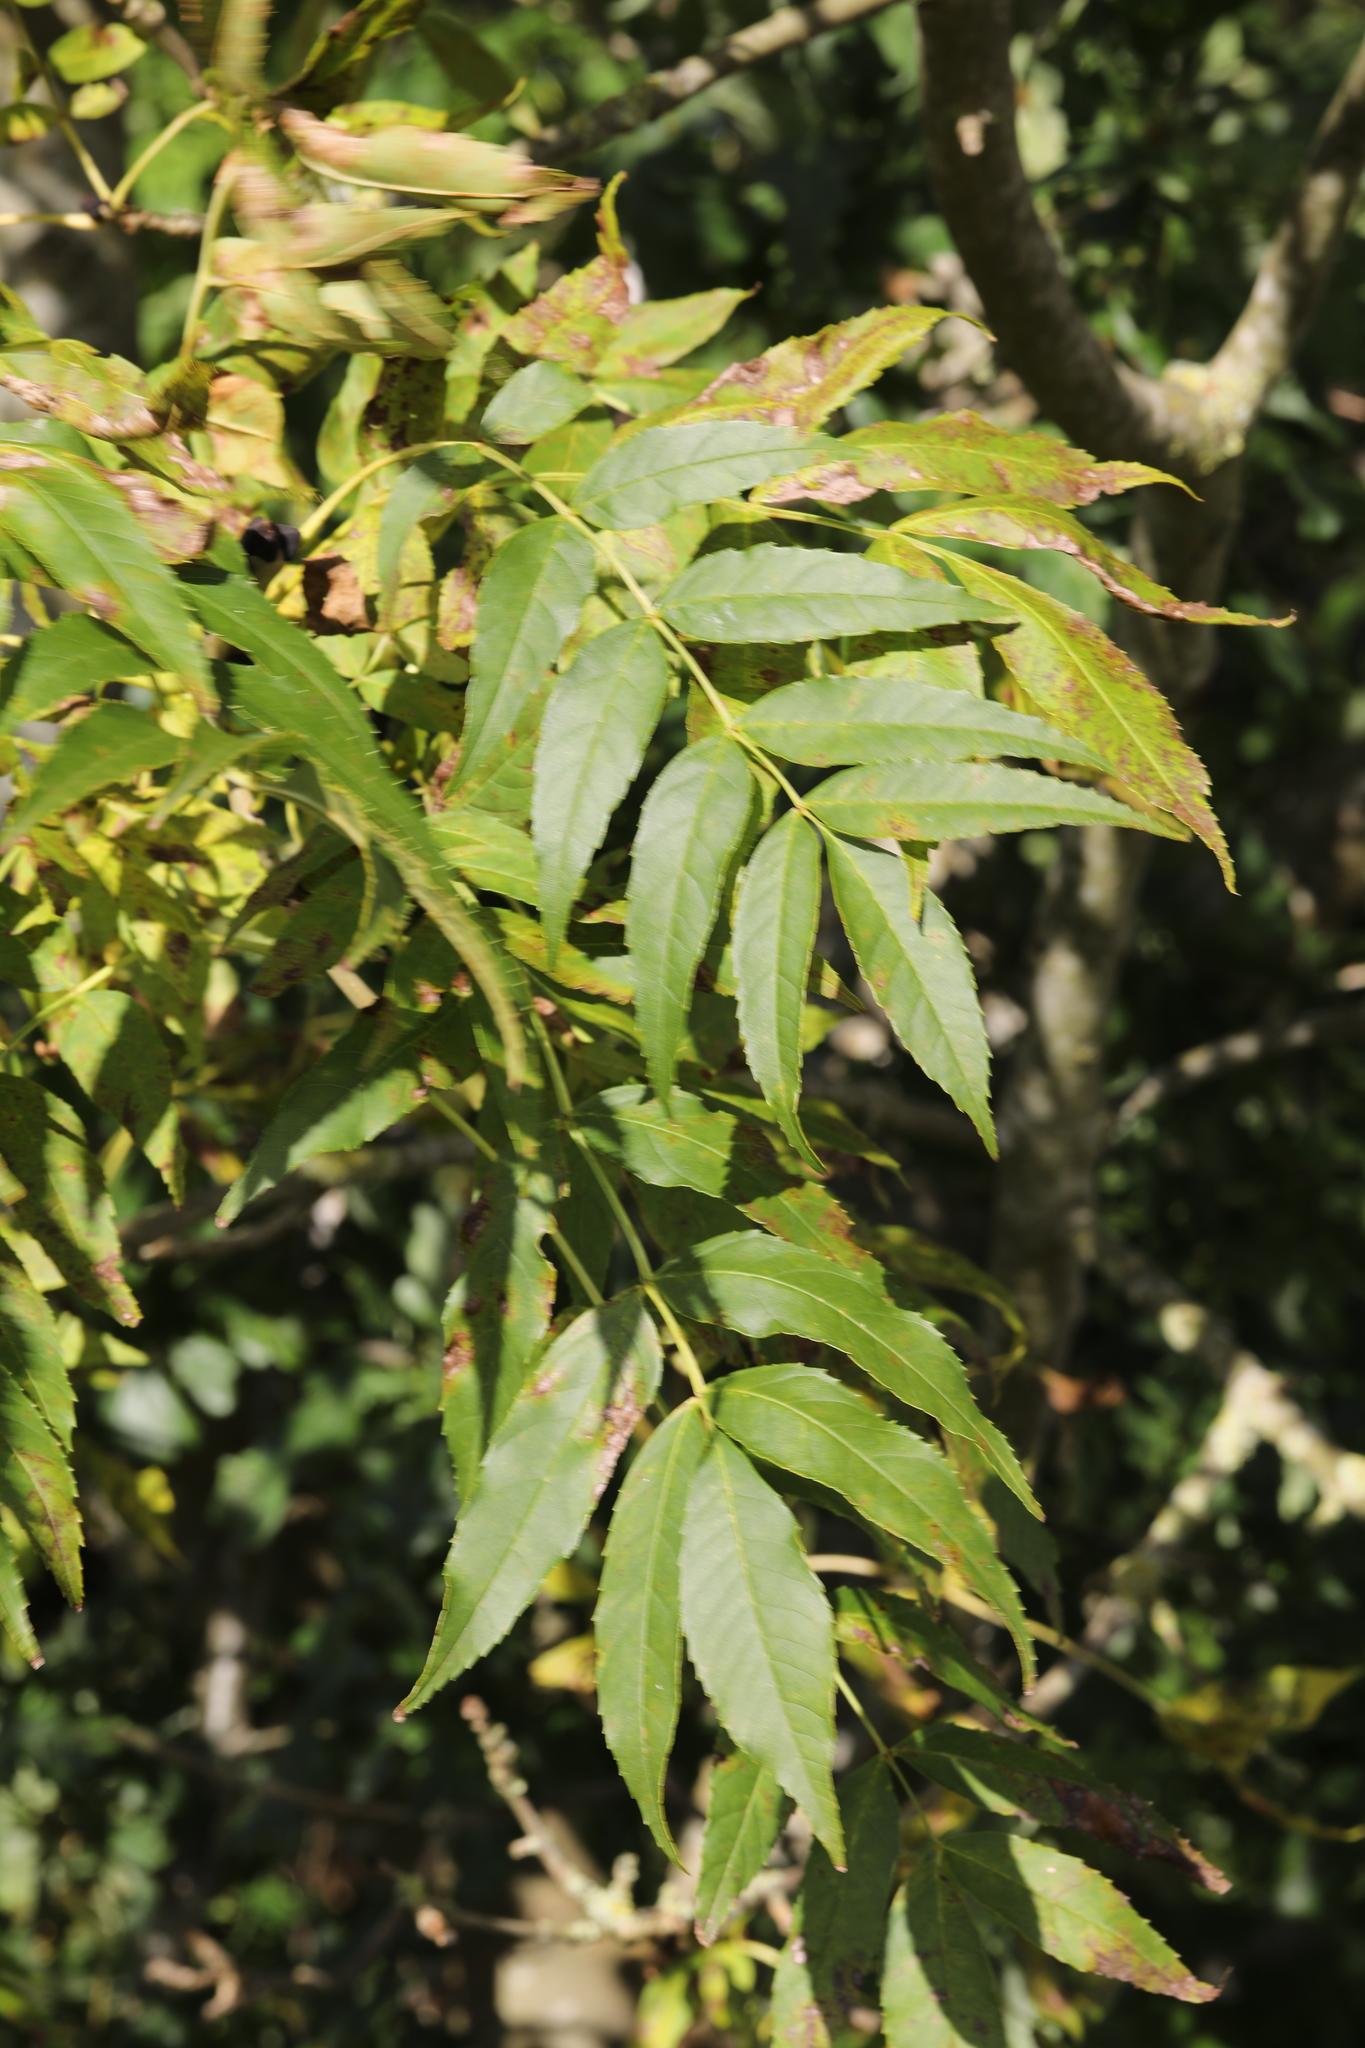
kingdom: Plantae
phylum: Tracheophyta
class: Magnoliopsida
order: Lamiales
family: Oleaceae
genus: Fraxinus
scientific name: Fraxinus excelsior
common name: European ash
